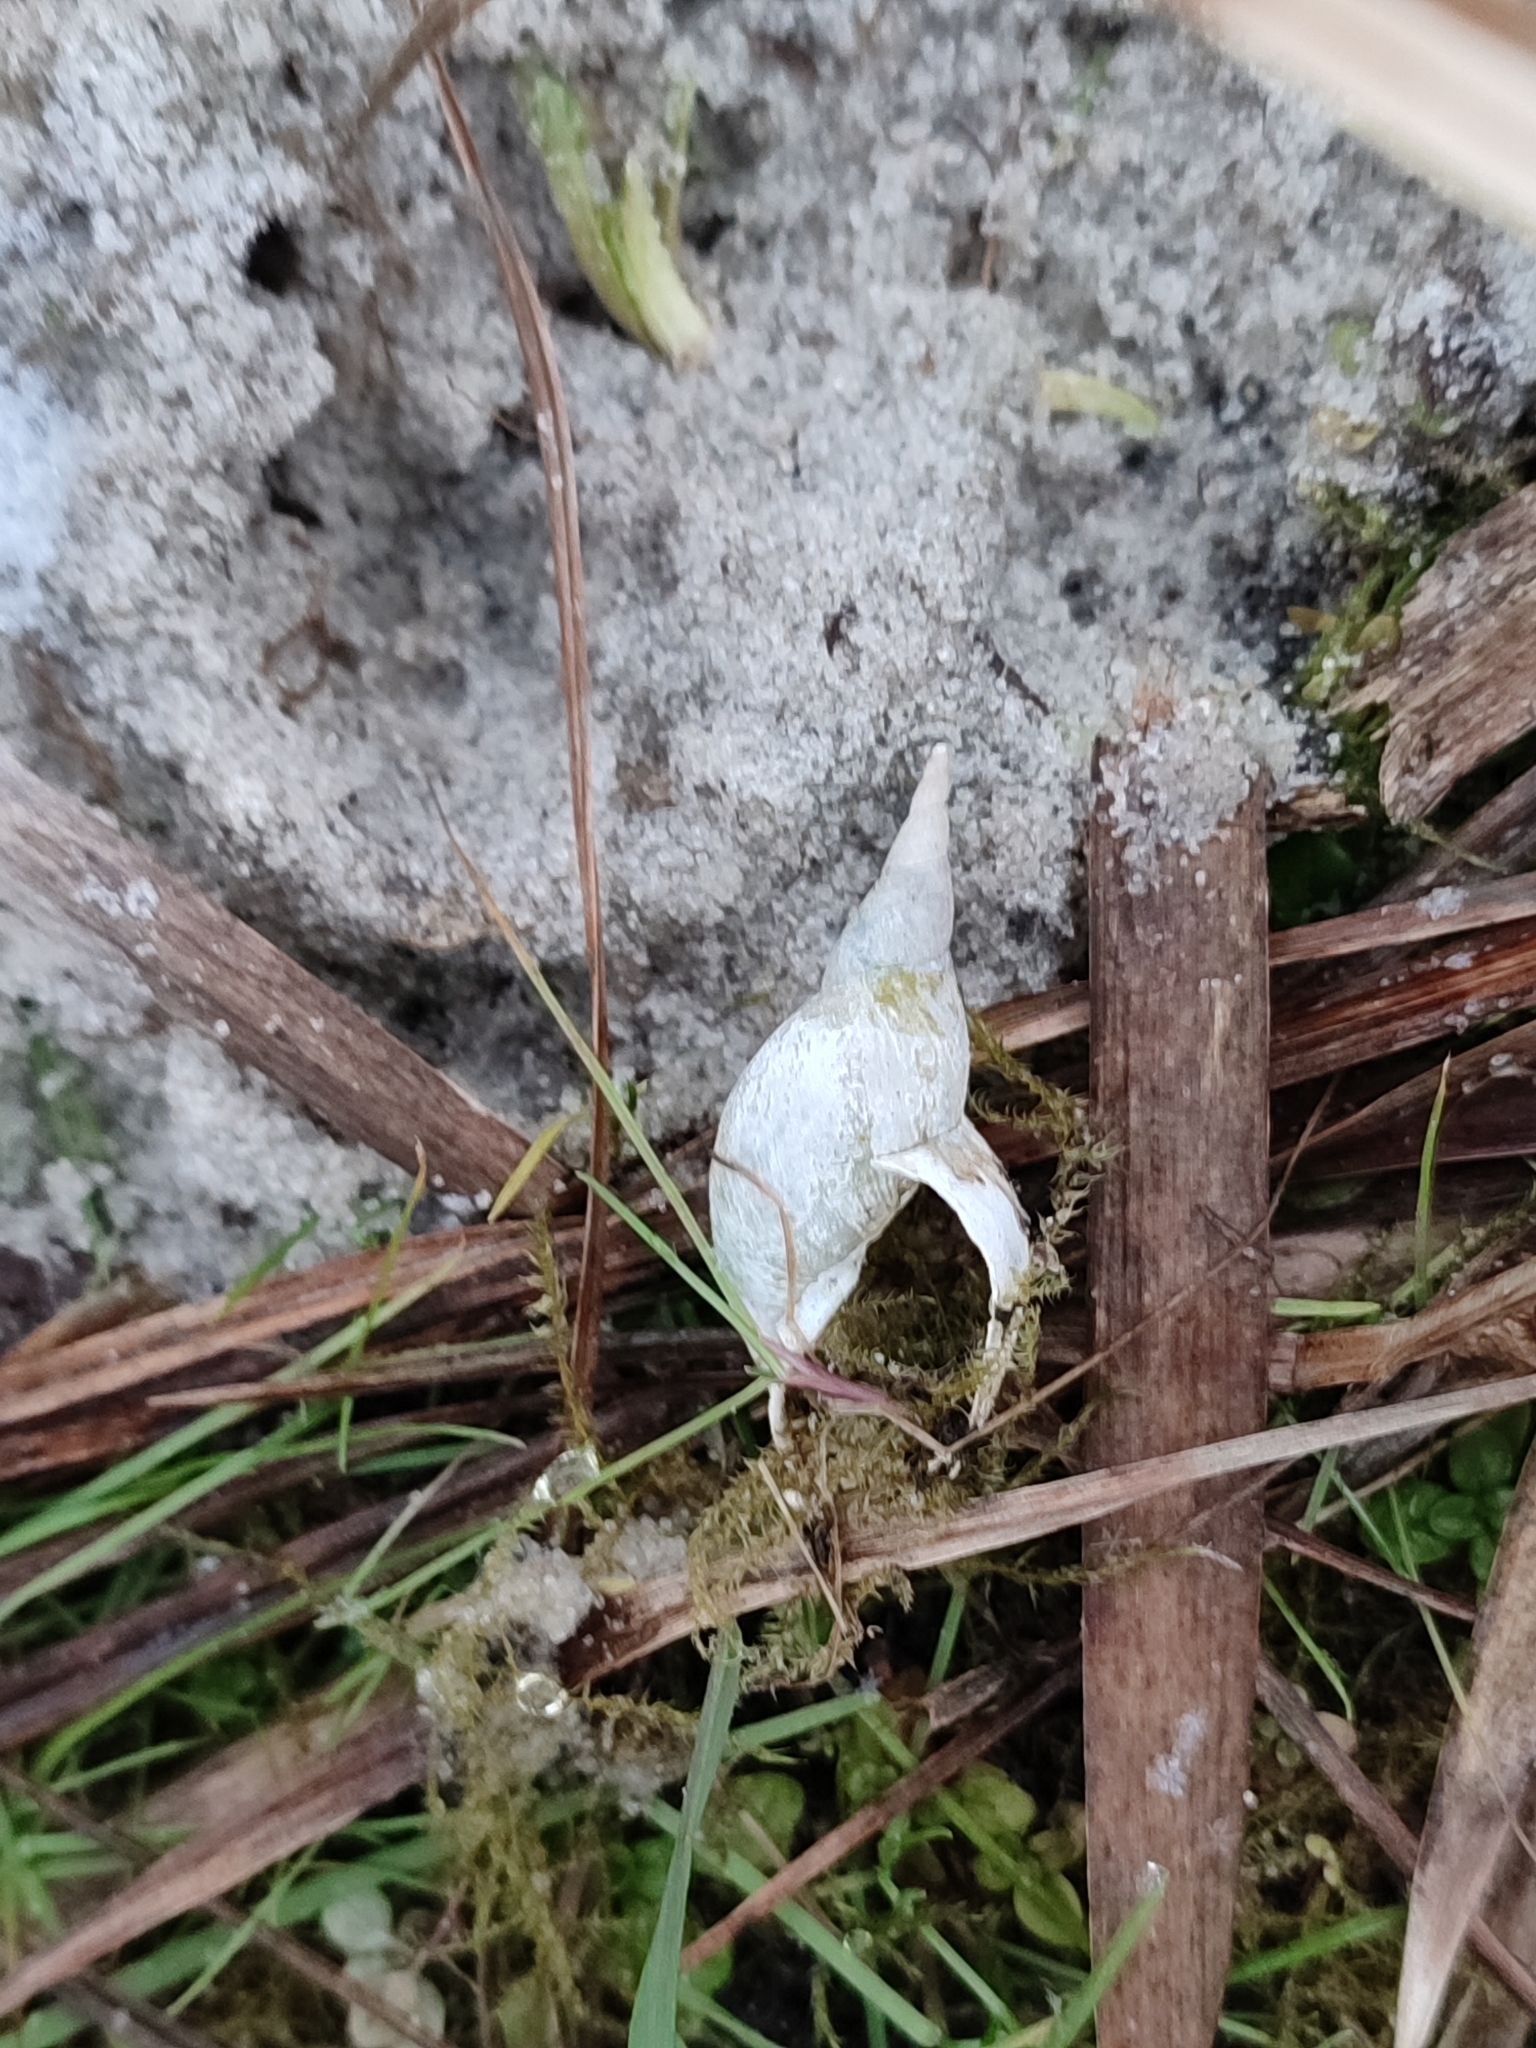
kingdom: Animalia
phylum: Mollusca
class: Gastropoda
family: Lymnaeidae
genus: Lymnaea
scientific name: Lymnaea stagnalis
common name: Great pond snail
